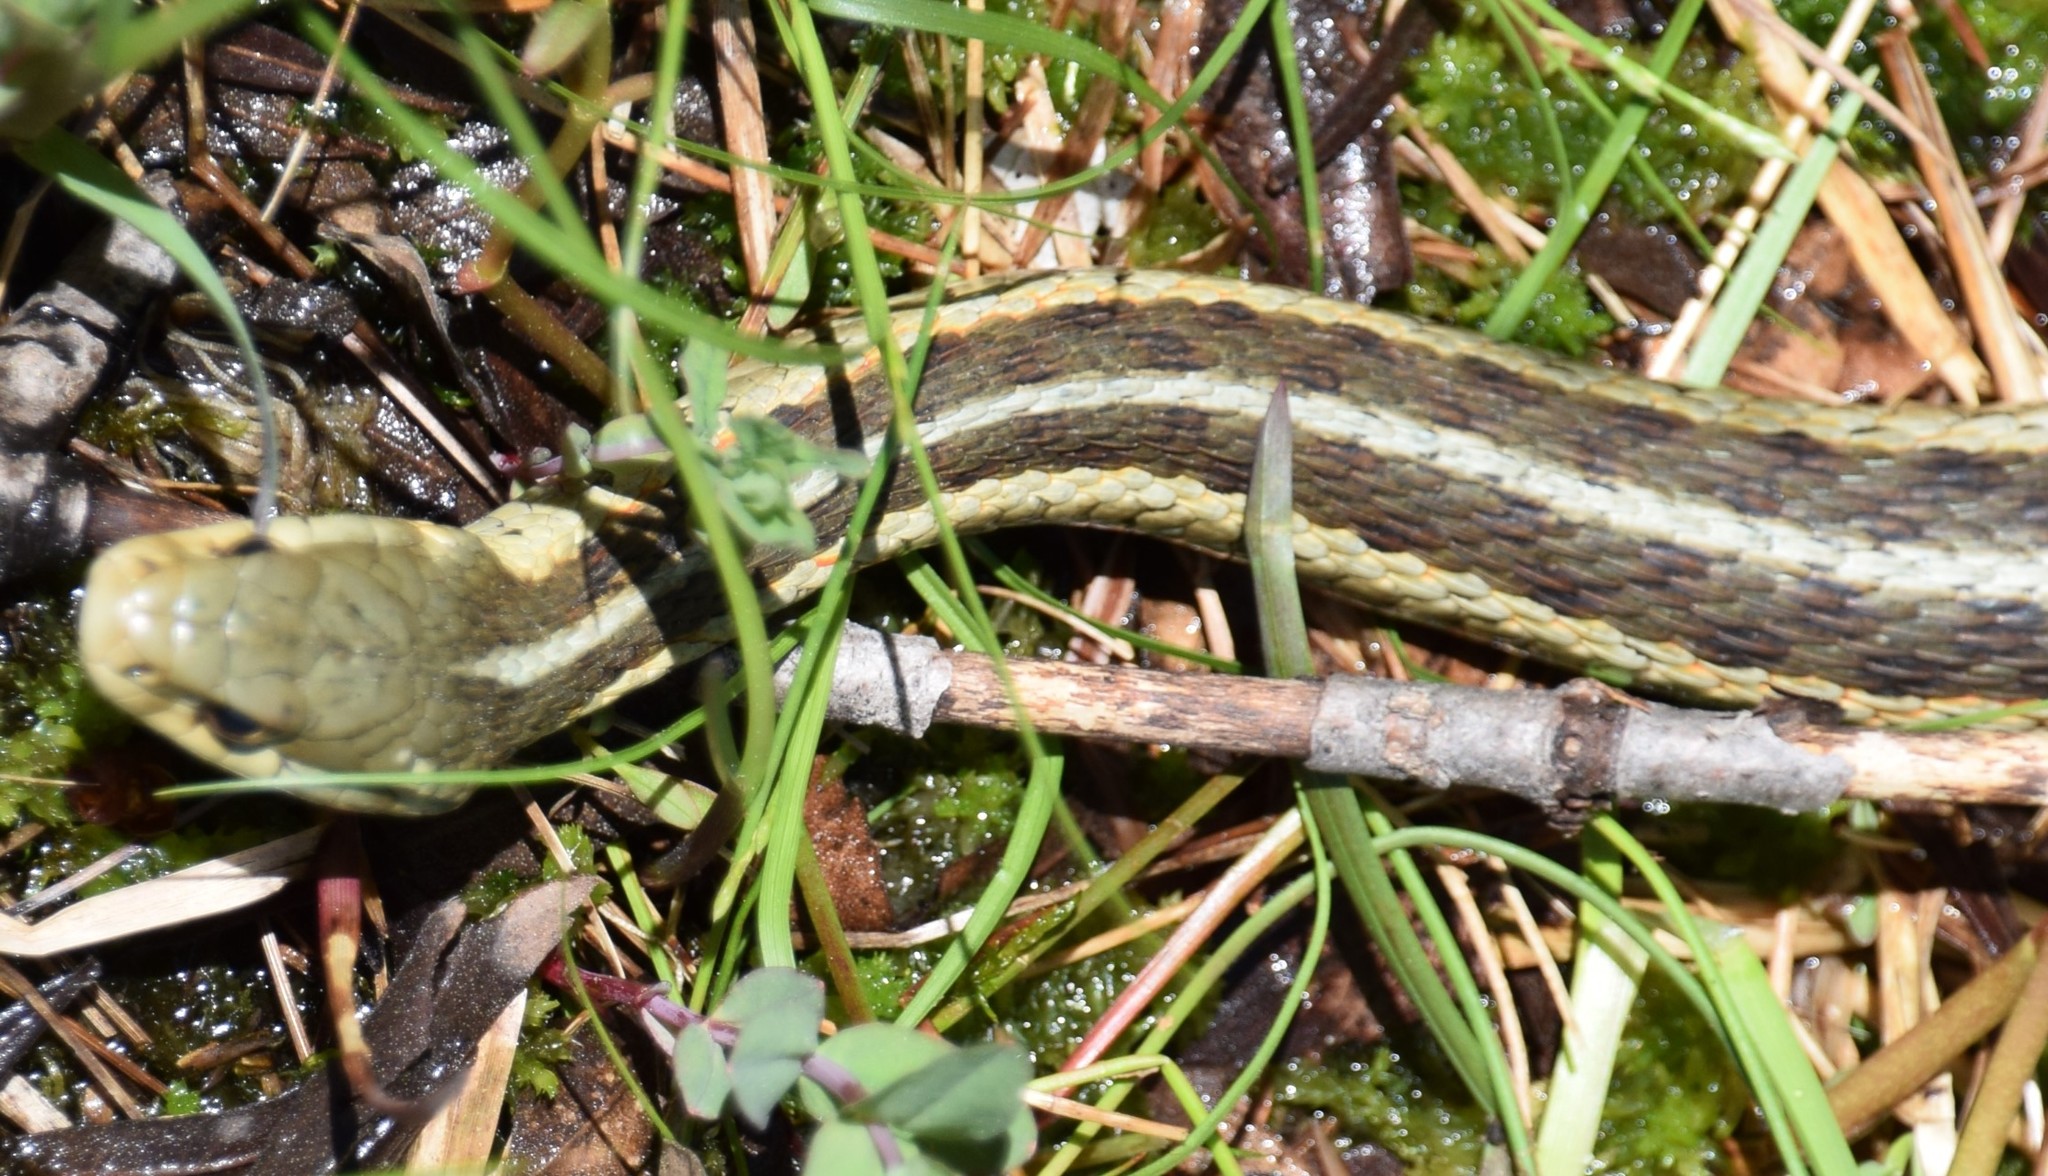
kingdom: Animalia
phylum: Chordata
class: Squamata
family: Colubridae
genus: Thamnophis
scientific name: Thamnophis sirtalis
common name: Common garter snake
